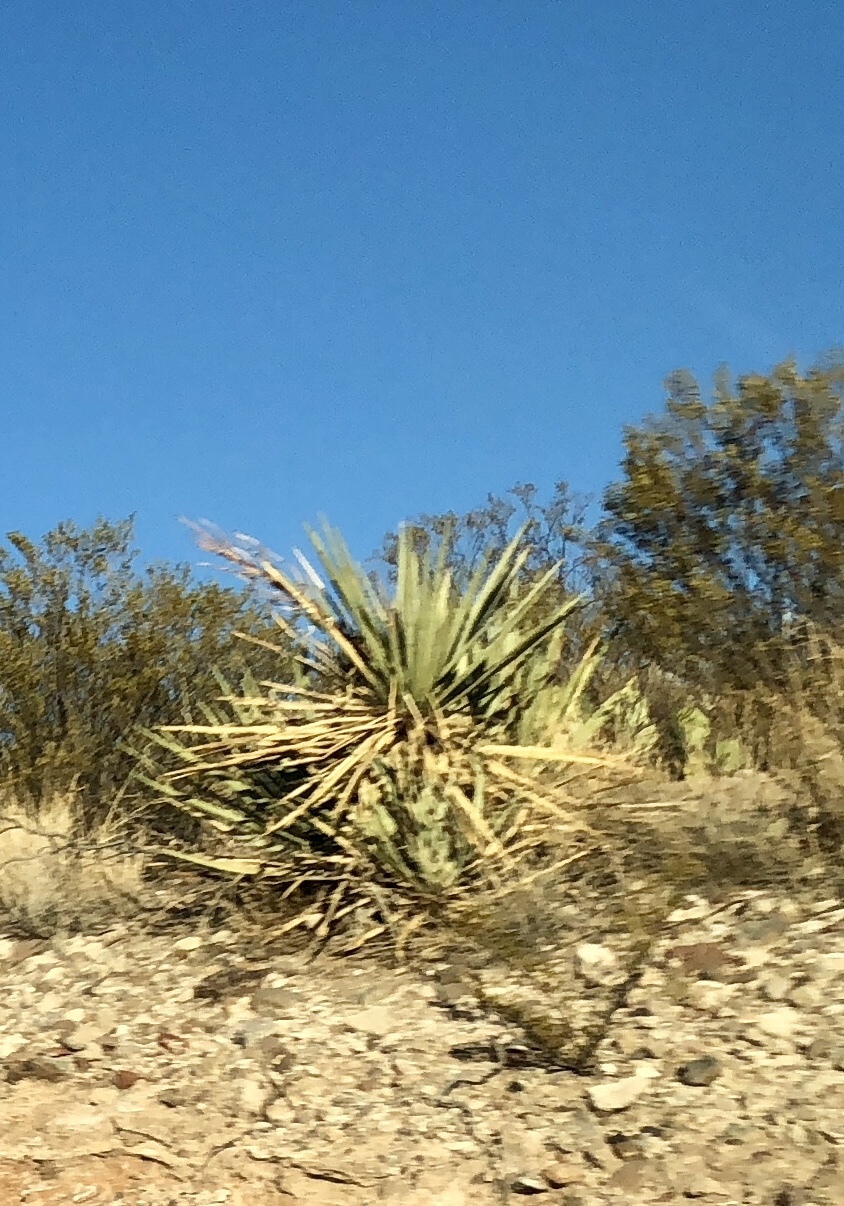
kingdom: Plantae
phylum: Tracheophyta
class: Liliopsida
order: Asparagales
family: Asparagaceae
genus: Yucca
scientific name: Yucca baccata
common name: Banana yucca
